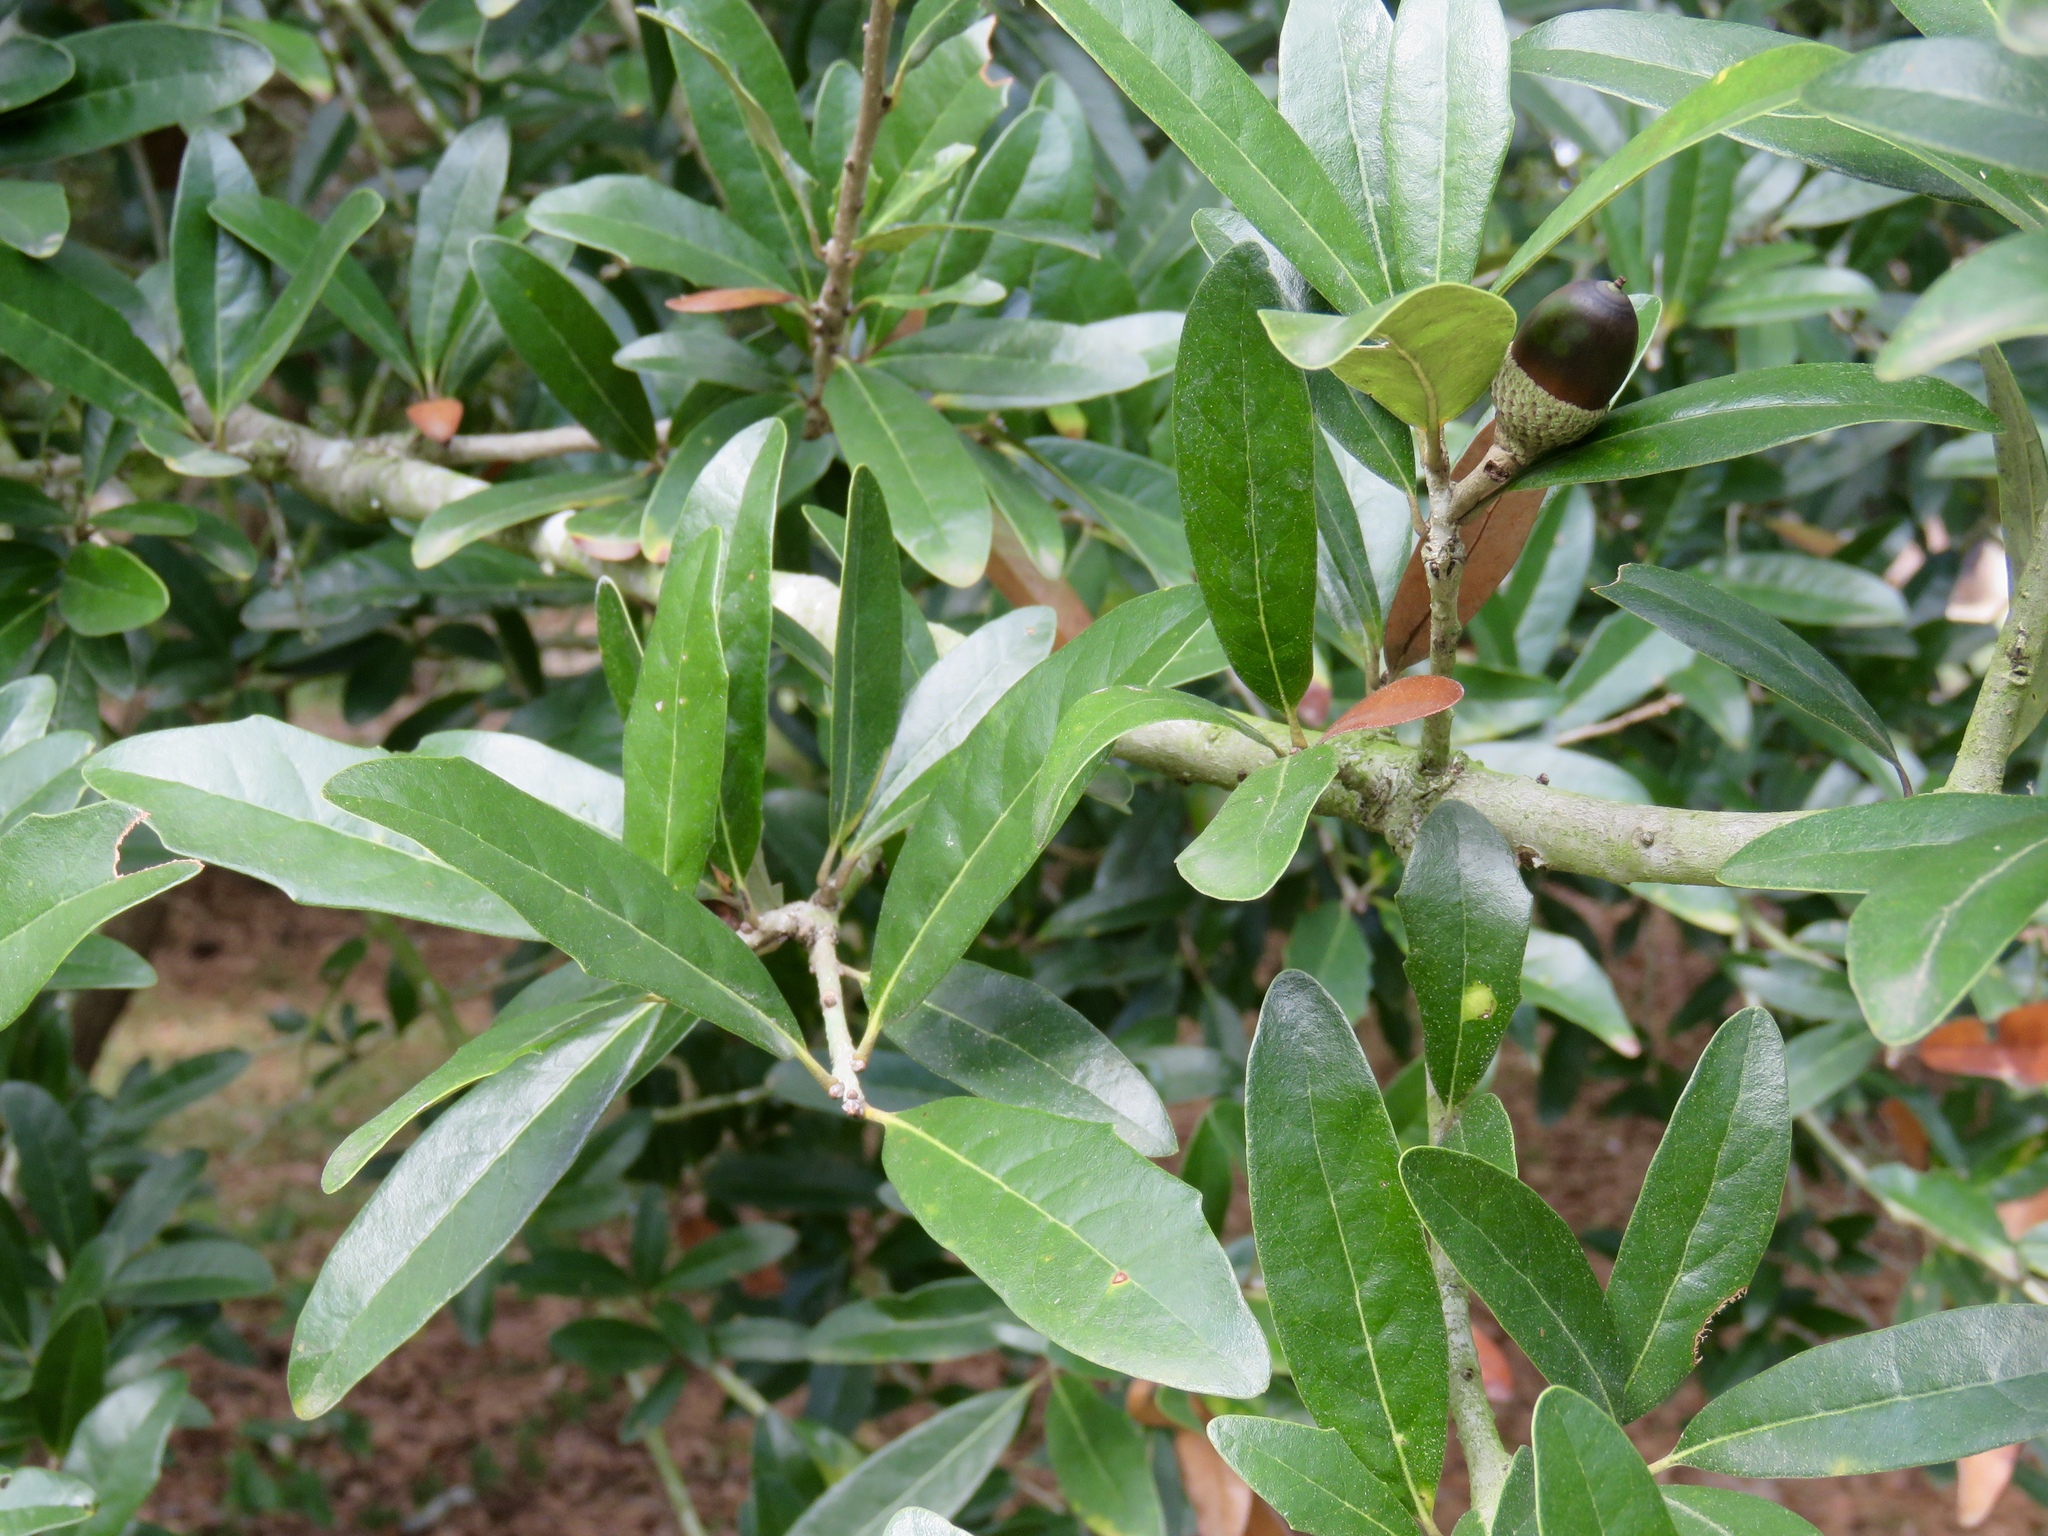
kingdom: Plantae
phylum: Tracheophyta
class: Magnoliopsida
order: Fagales
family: Fagaceae
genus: Quercus
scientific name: Quercus virginiana
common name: Southern live oak
